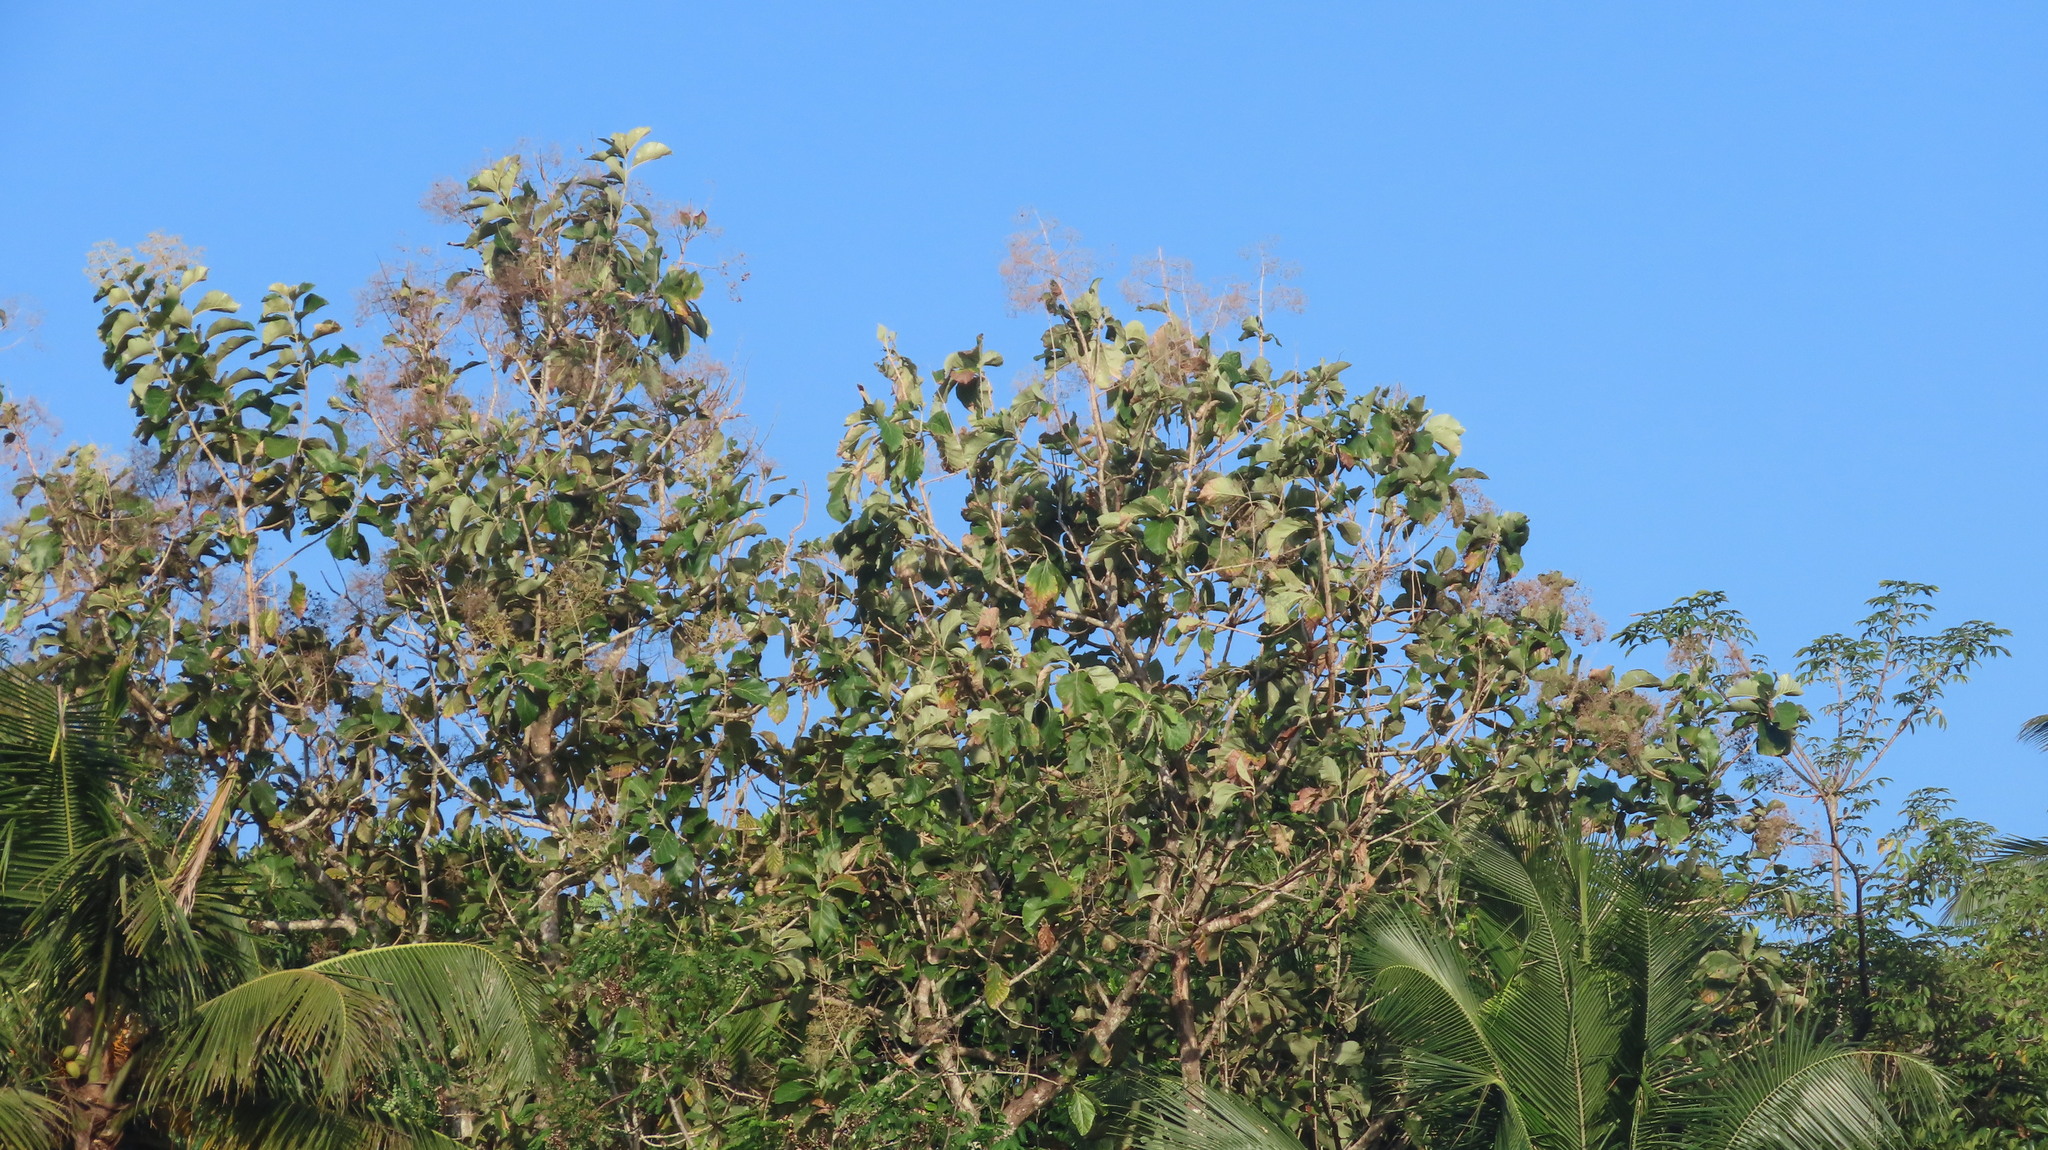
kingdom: Plantae
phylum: Tracheophyta
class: Magnoliopsida
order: Lamiales
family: Lamiaceae
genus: Tectona
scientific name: Tectona grandis
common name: Teak
